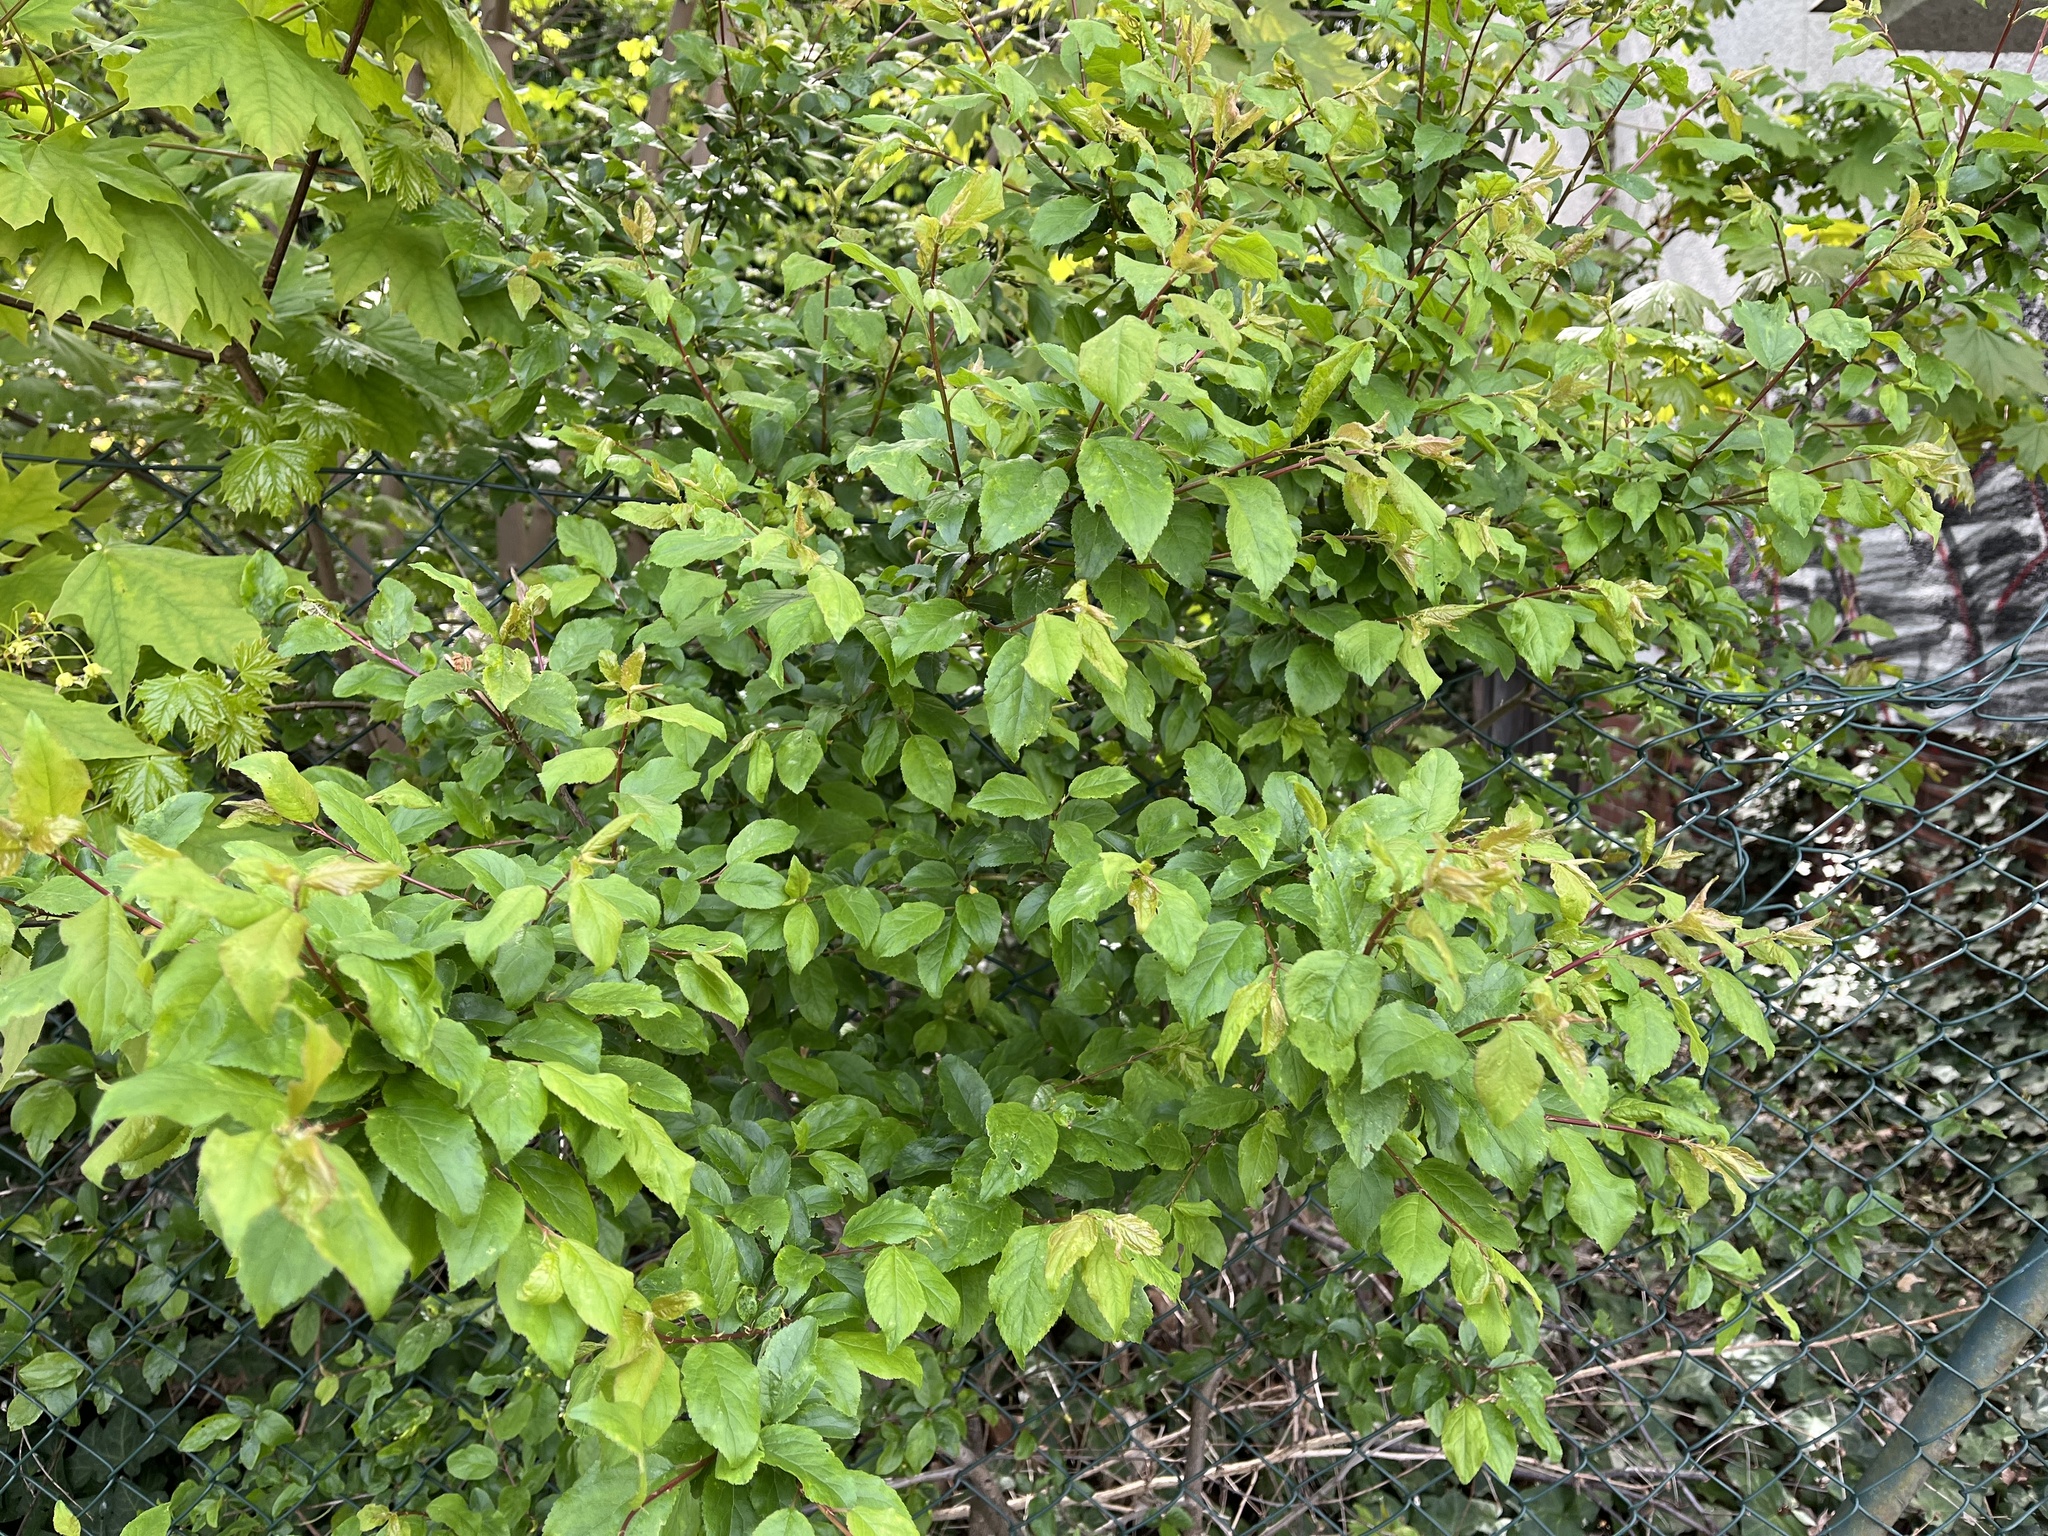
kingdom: Plantae
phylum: Tracheophyta
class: Magnoliopsida
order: Rosales
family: Rosaceae
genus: Prunus
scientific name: Prunus cerasifera
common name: Cherry plum
